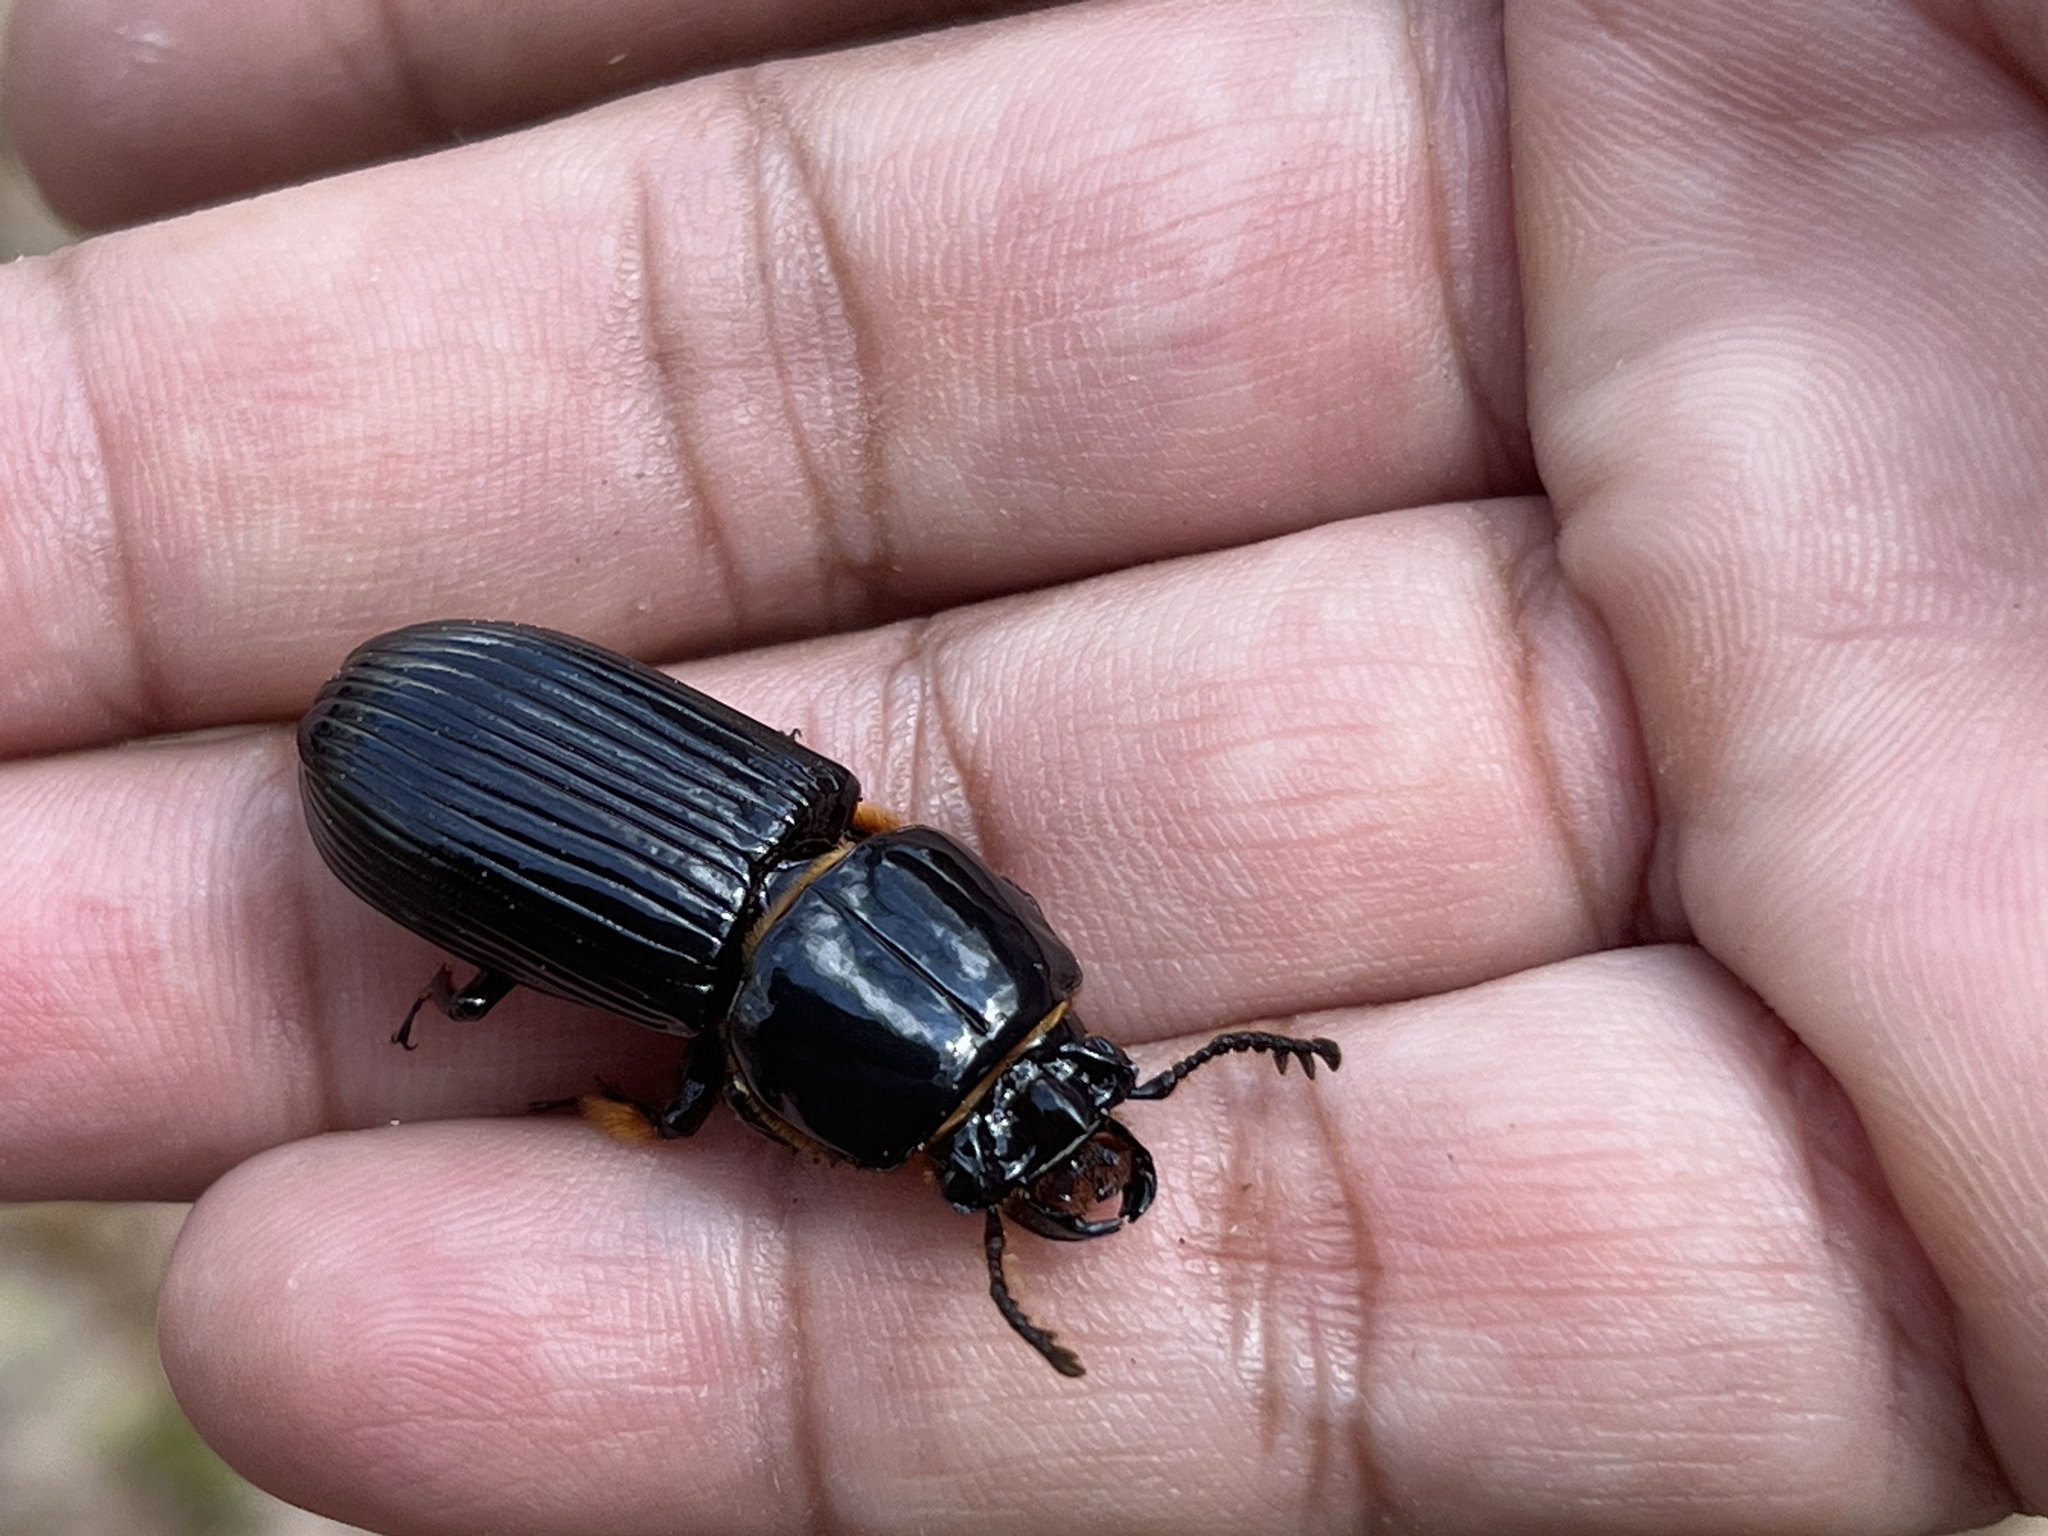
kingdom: Animalia
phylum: Arthropoda
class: Insecta
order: Coleoptera
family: Passalidae
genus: Odontotaenius
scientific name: Odontotaenius disjunctus
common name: Patent leather beetle
